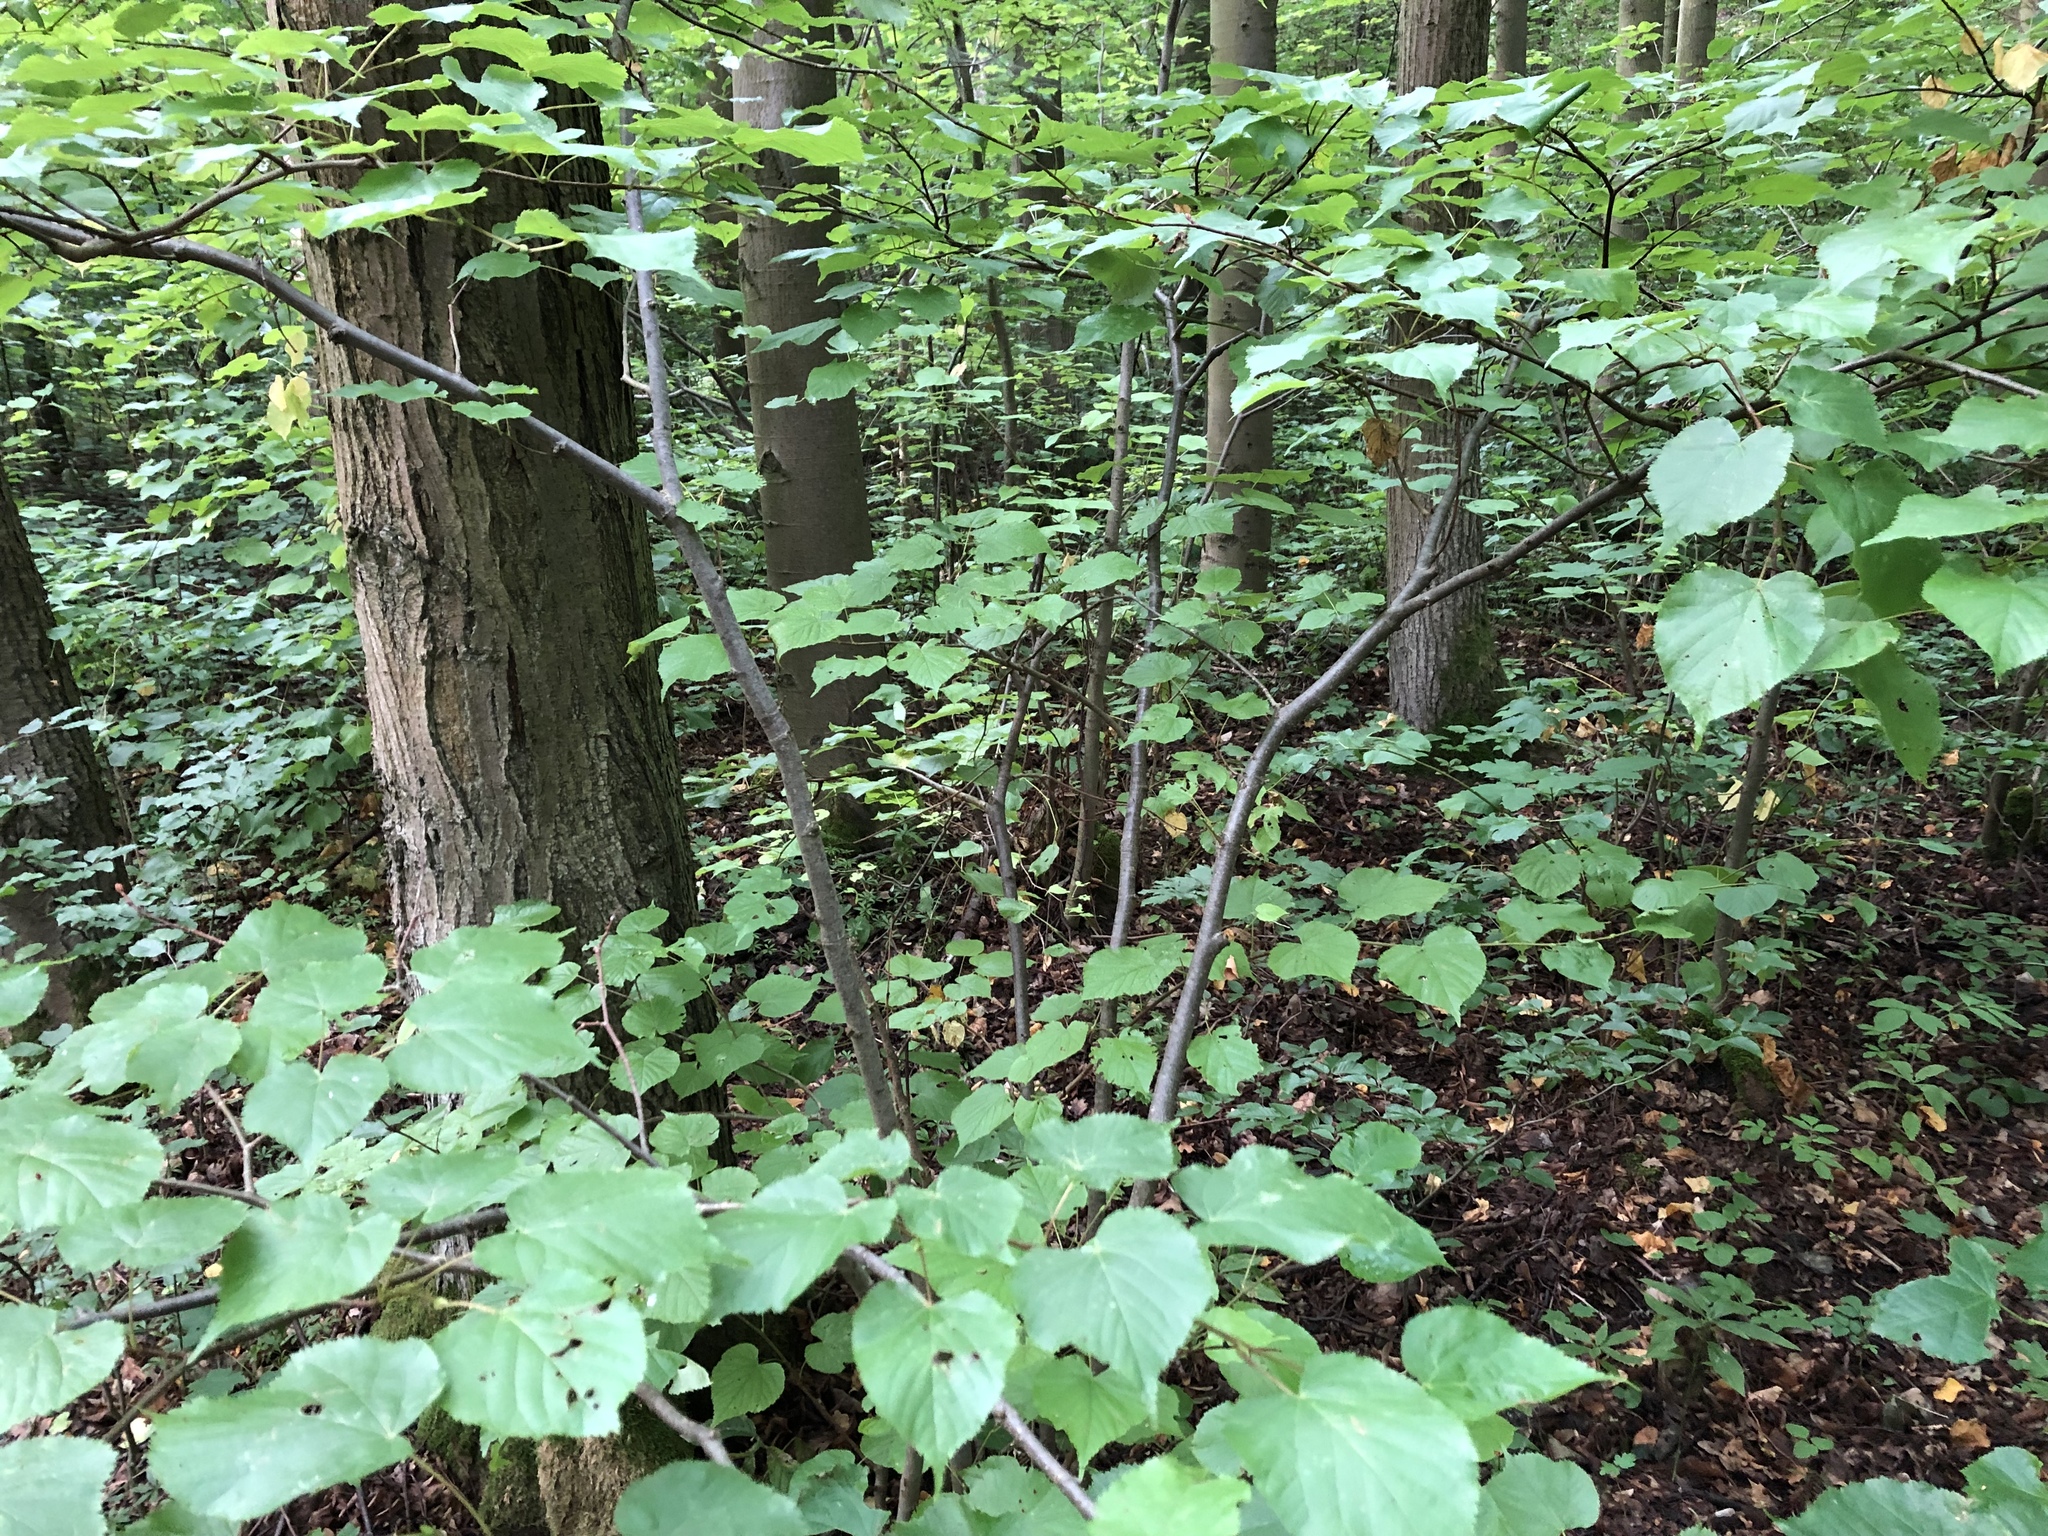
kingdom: Plantae
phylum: Tracheophyta
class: Magnoliopsida
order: Malvales
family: Malvaceae
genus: Tilia
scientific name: Tilia cordata
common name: Small-leaved lime
